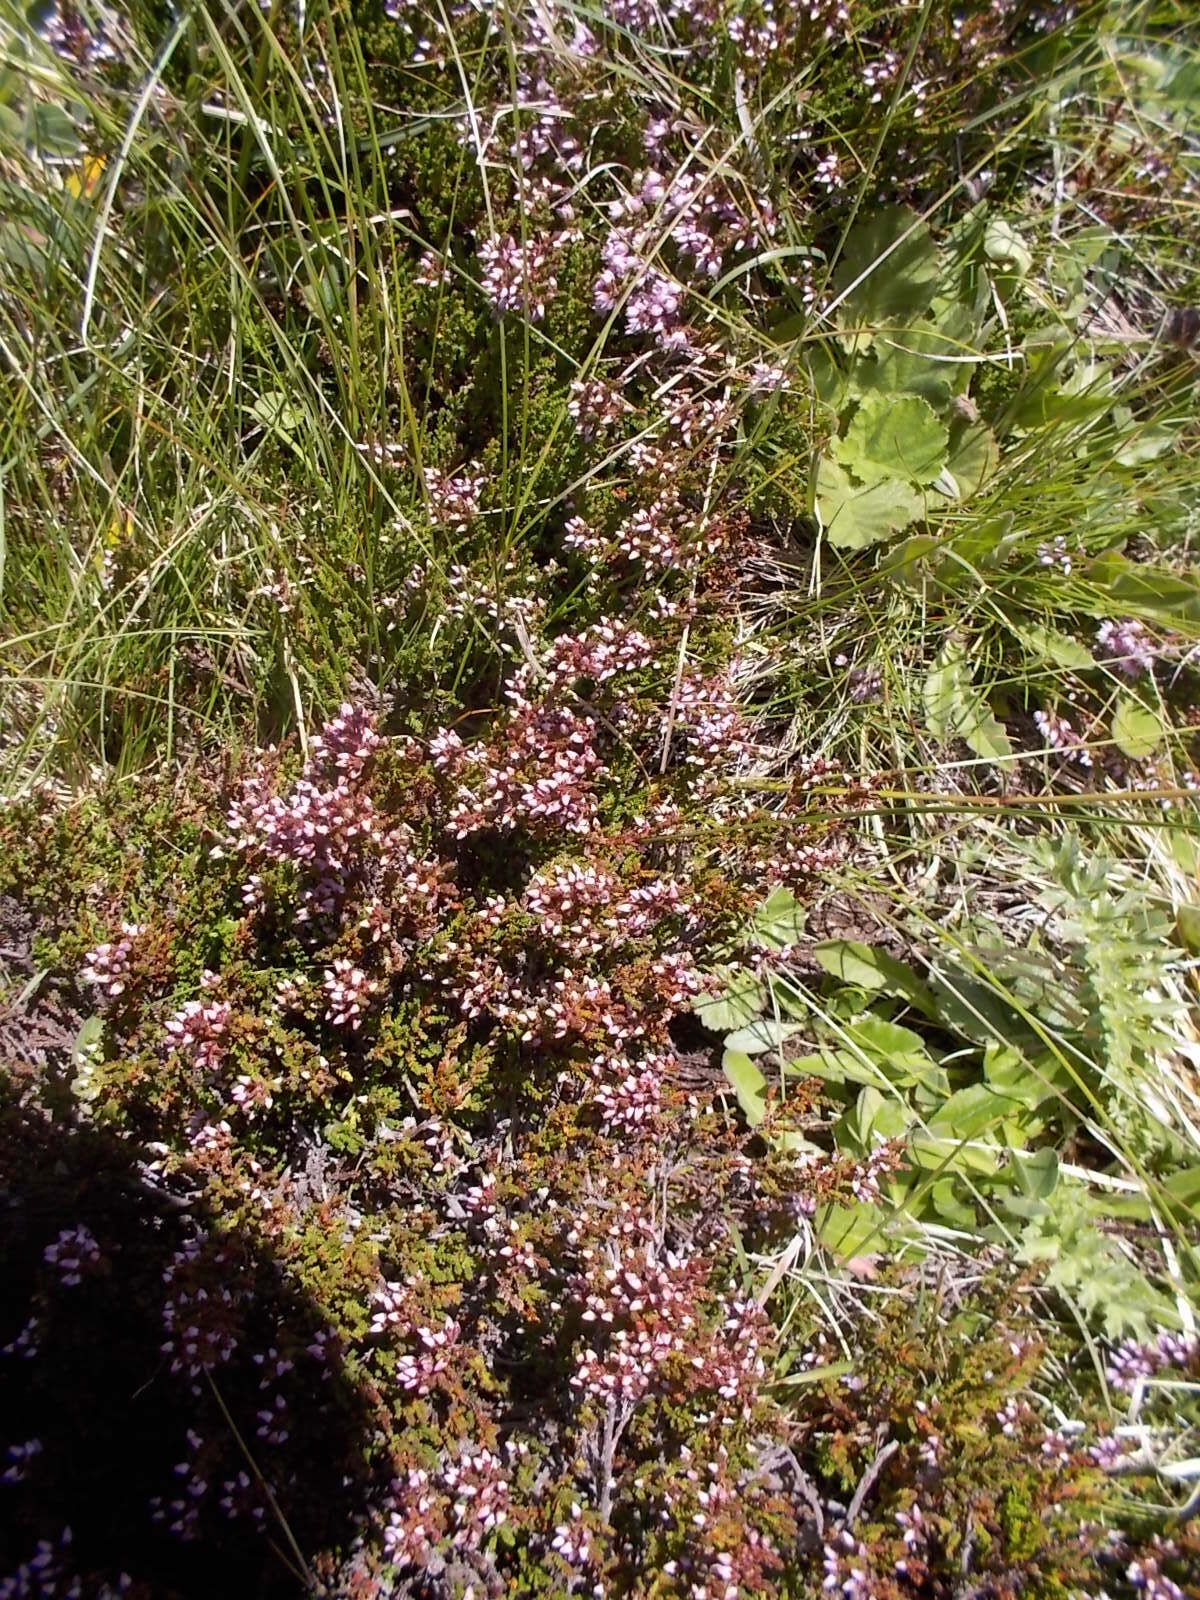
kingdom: Plantae
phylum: Tracheophyta
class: Magnoliopsida
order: Ericales
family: Ericaceae
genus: Calluna
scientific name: Calluna vulgaris
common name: Heather
